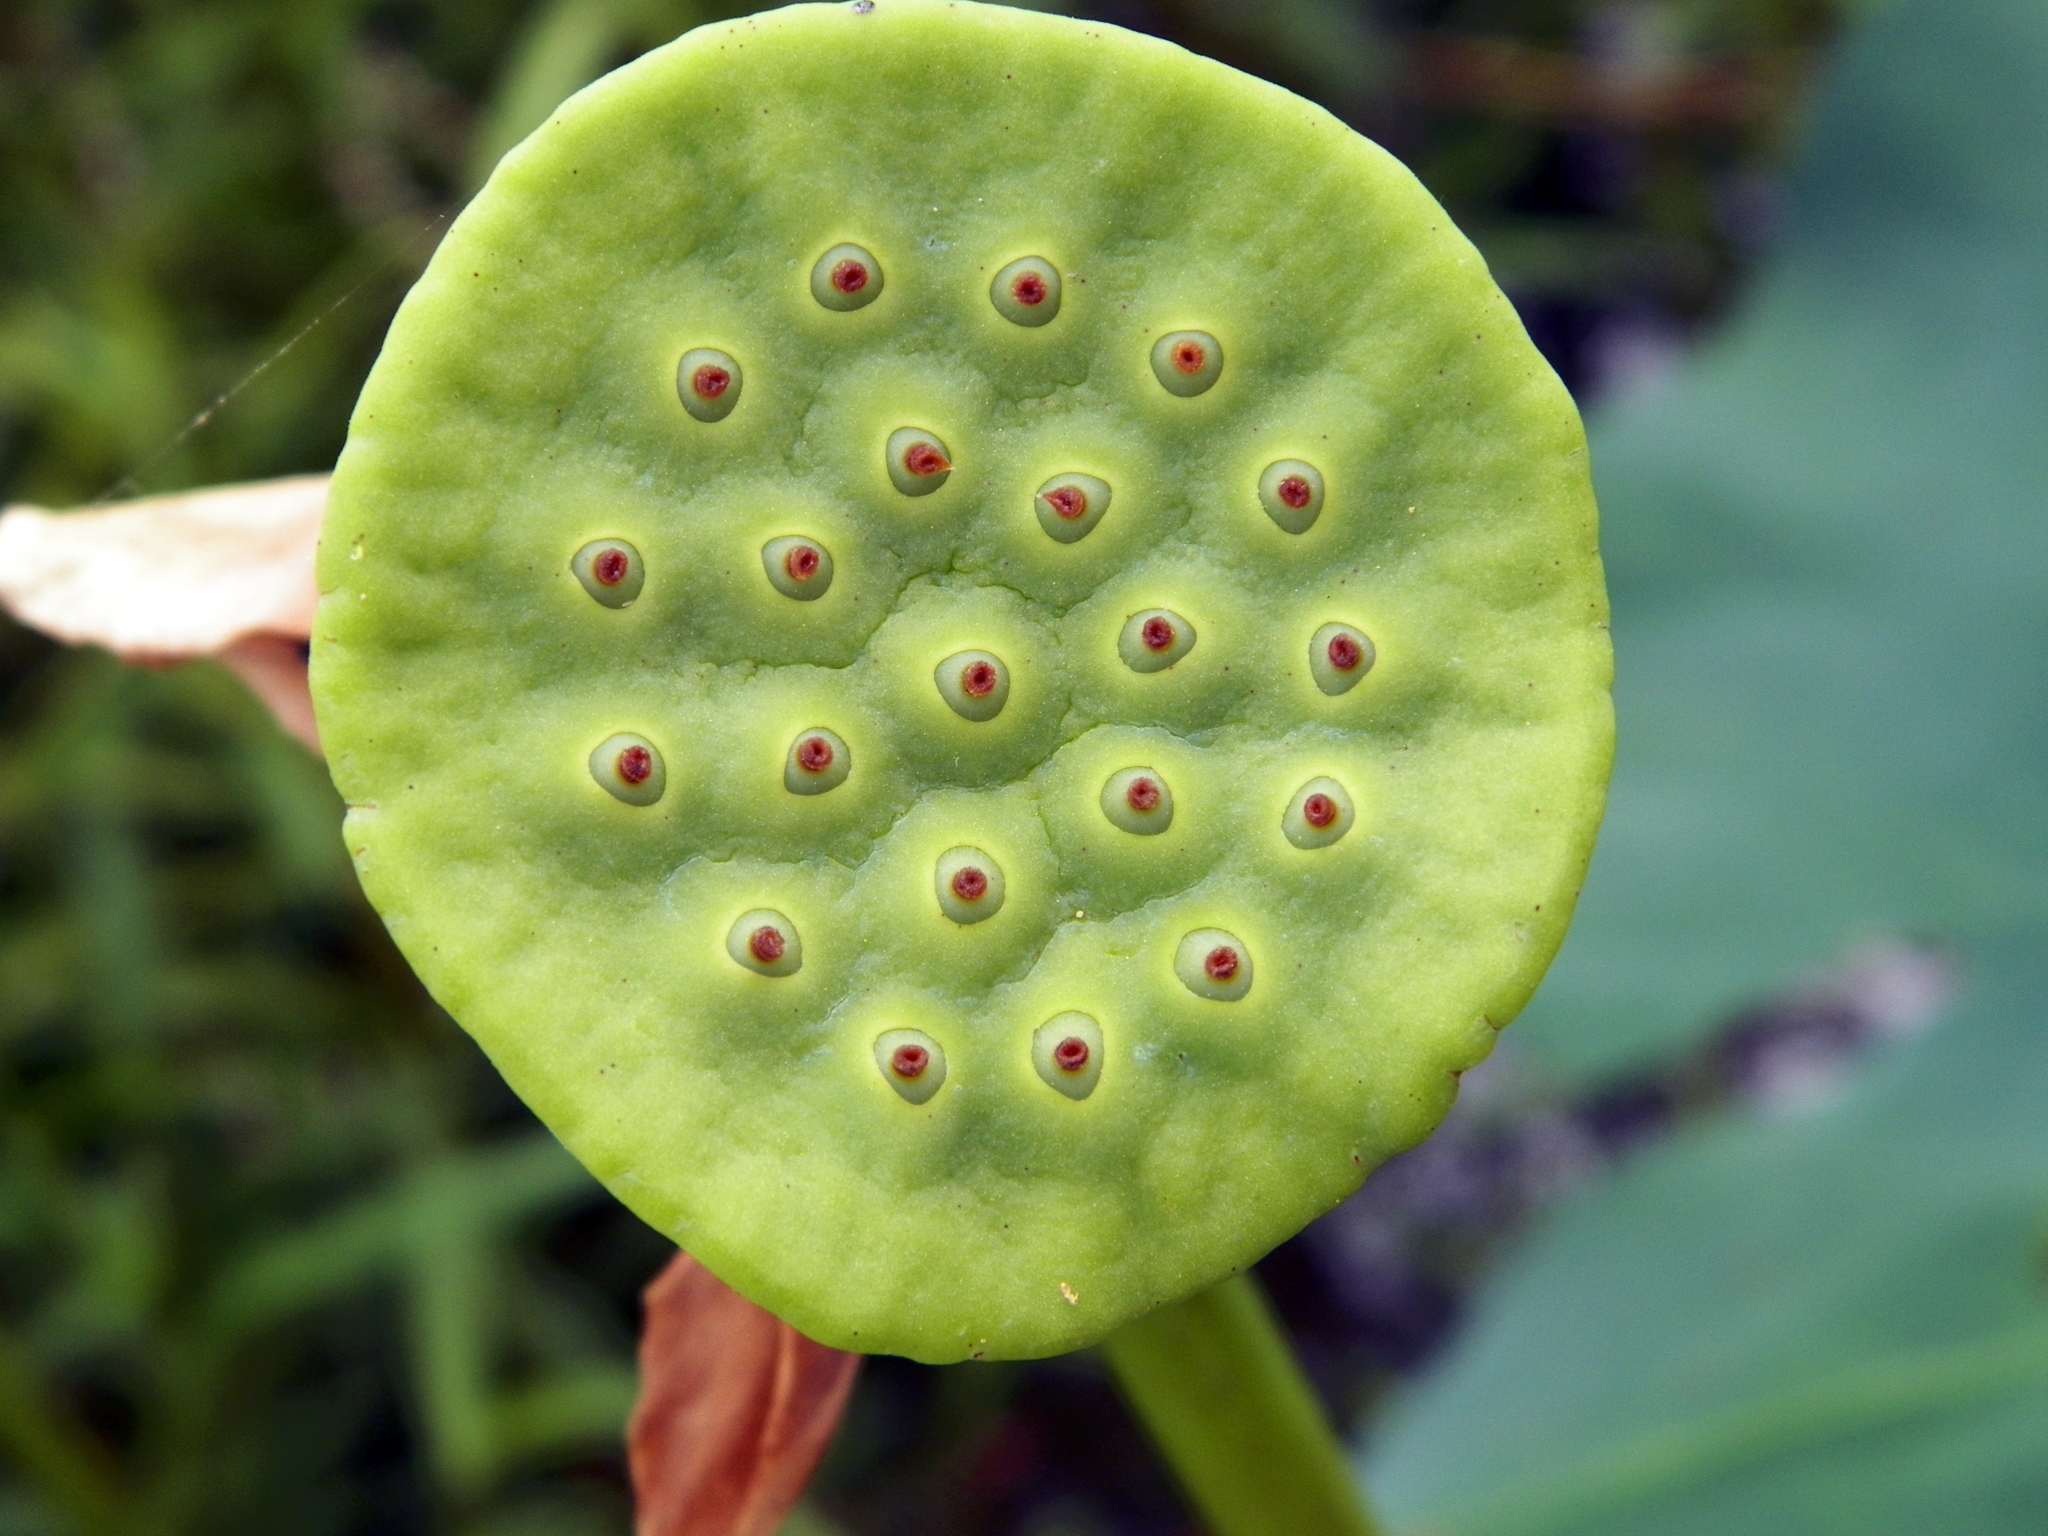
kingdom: Plantae
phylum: Tracheophyta
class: Magnoliopsida
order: Proteales
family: Nelumbonaceae
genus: Nelumbo
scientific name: Nelumbo lutea
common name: American lotus
